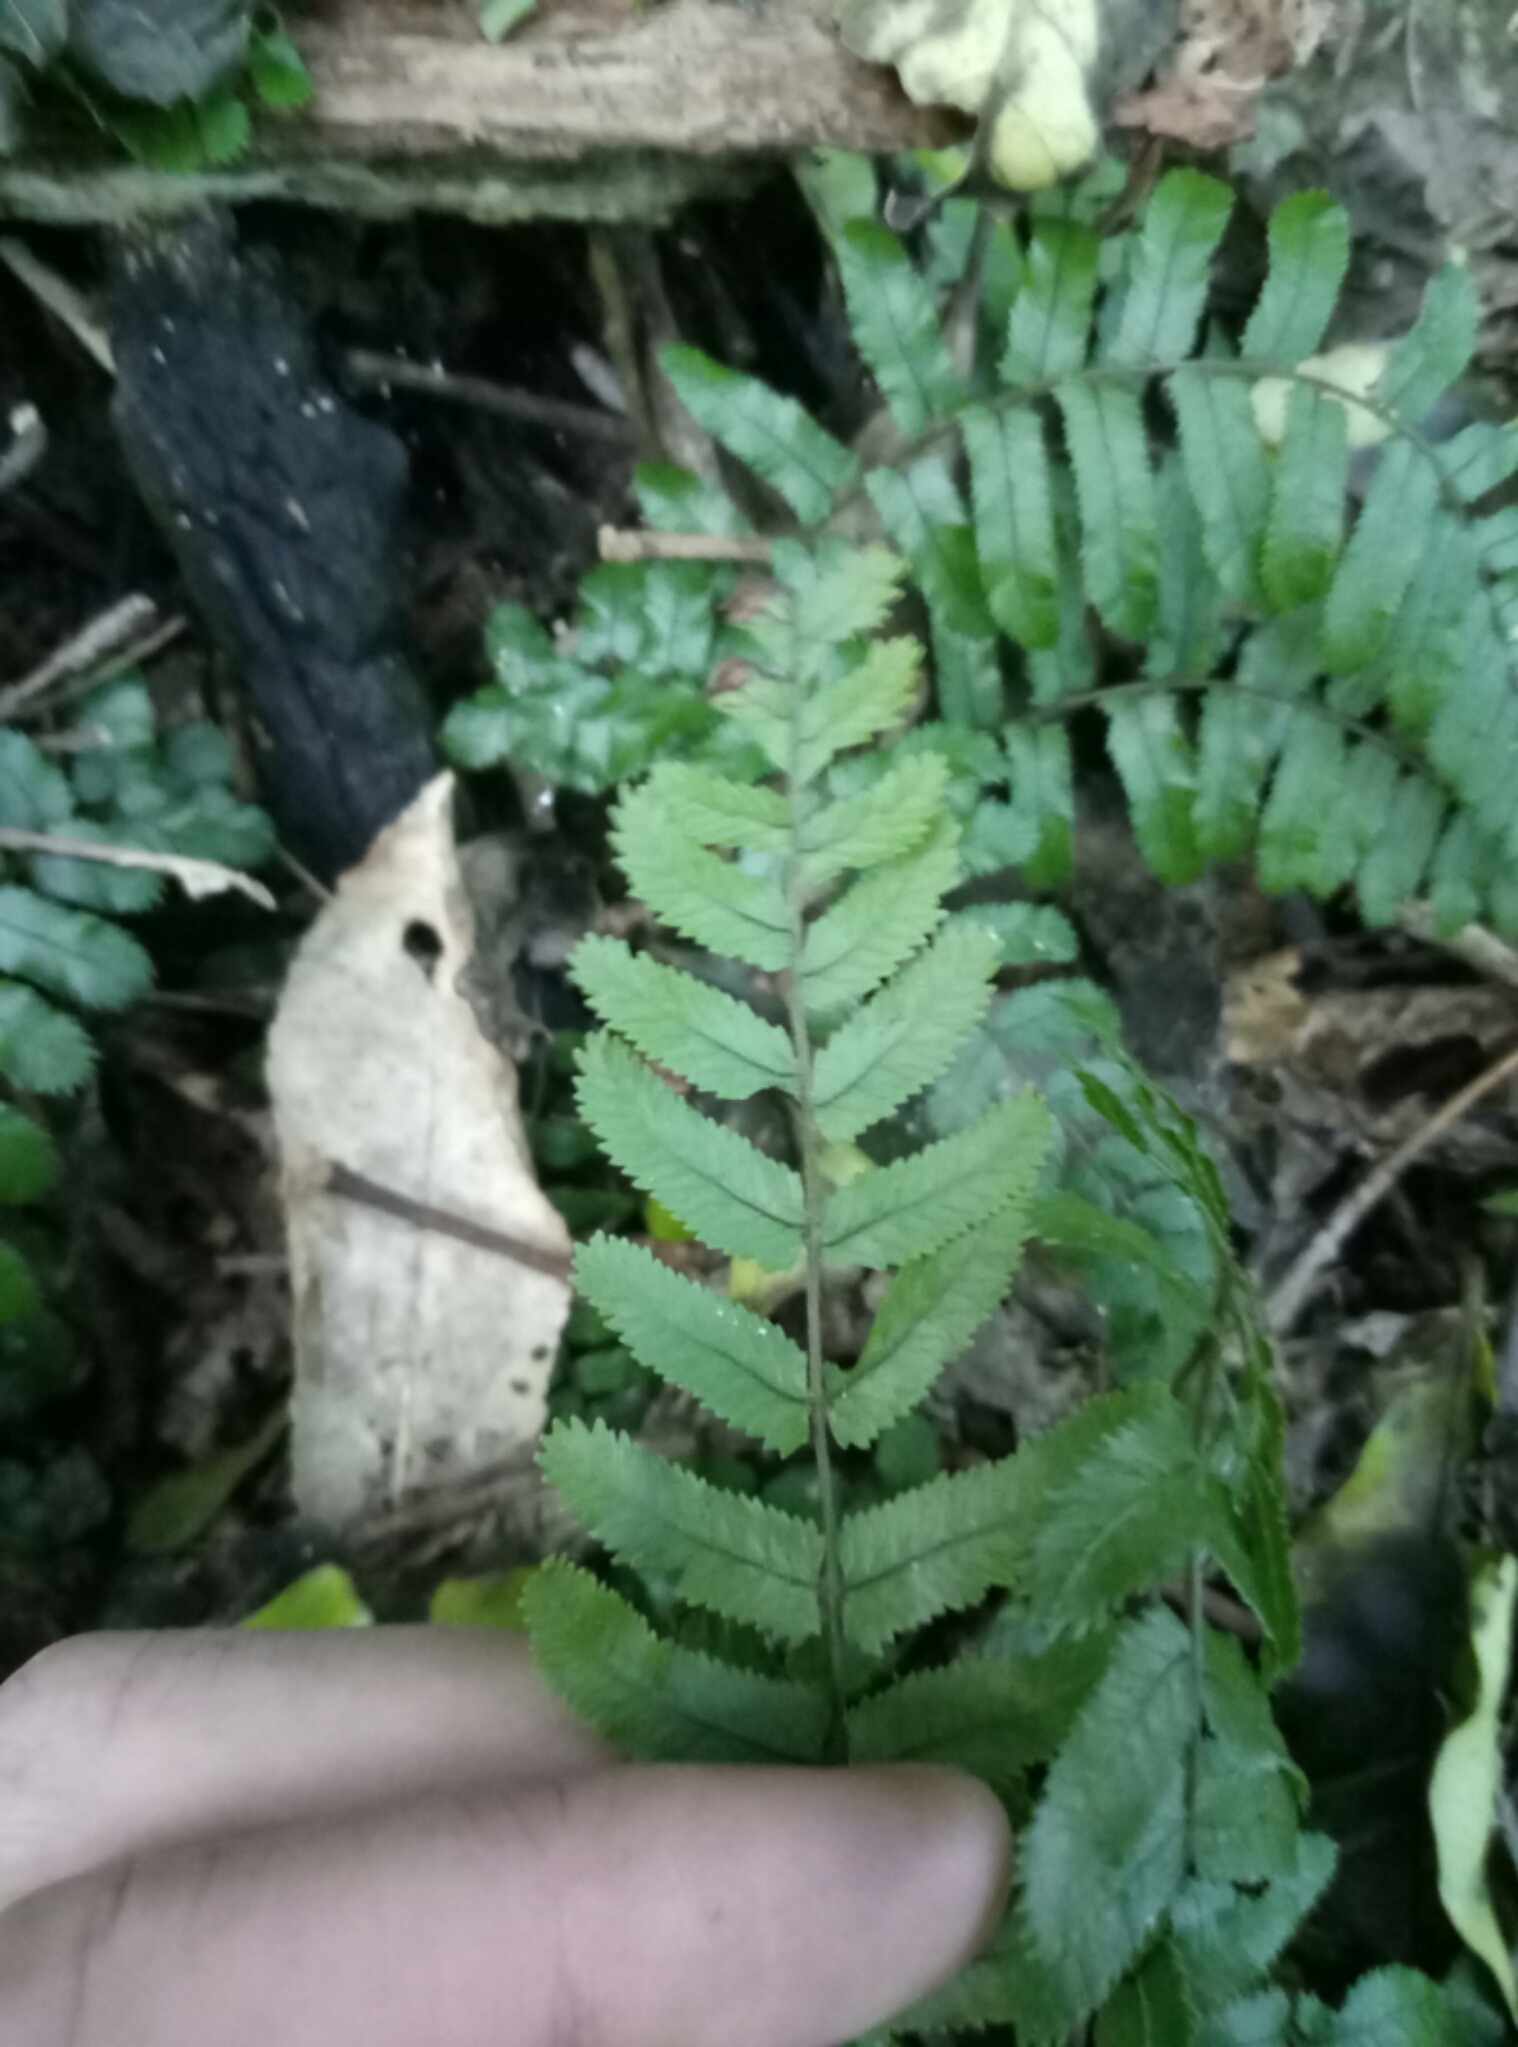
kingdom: Plantae
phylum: Tracheophyta
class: Polypodiopsida
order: Polypodiales
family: Blechnaceae
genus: Icarus
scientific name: Icarus filiformis
